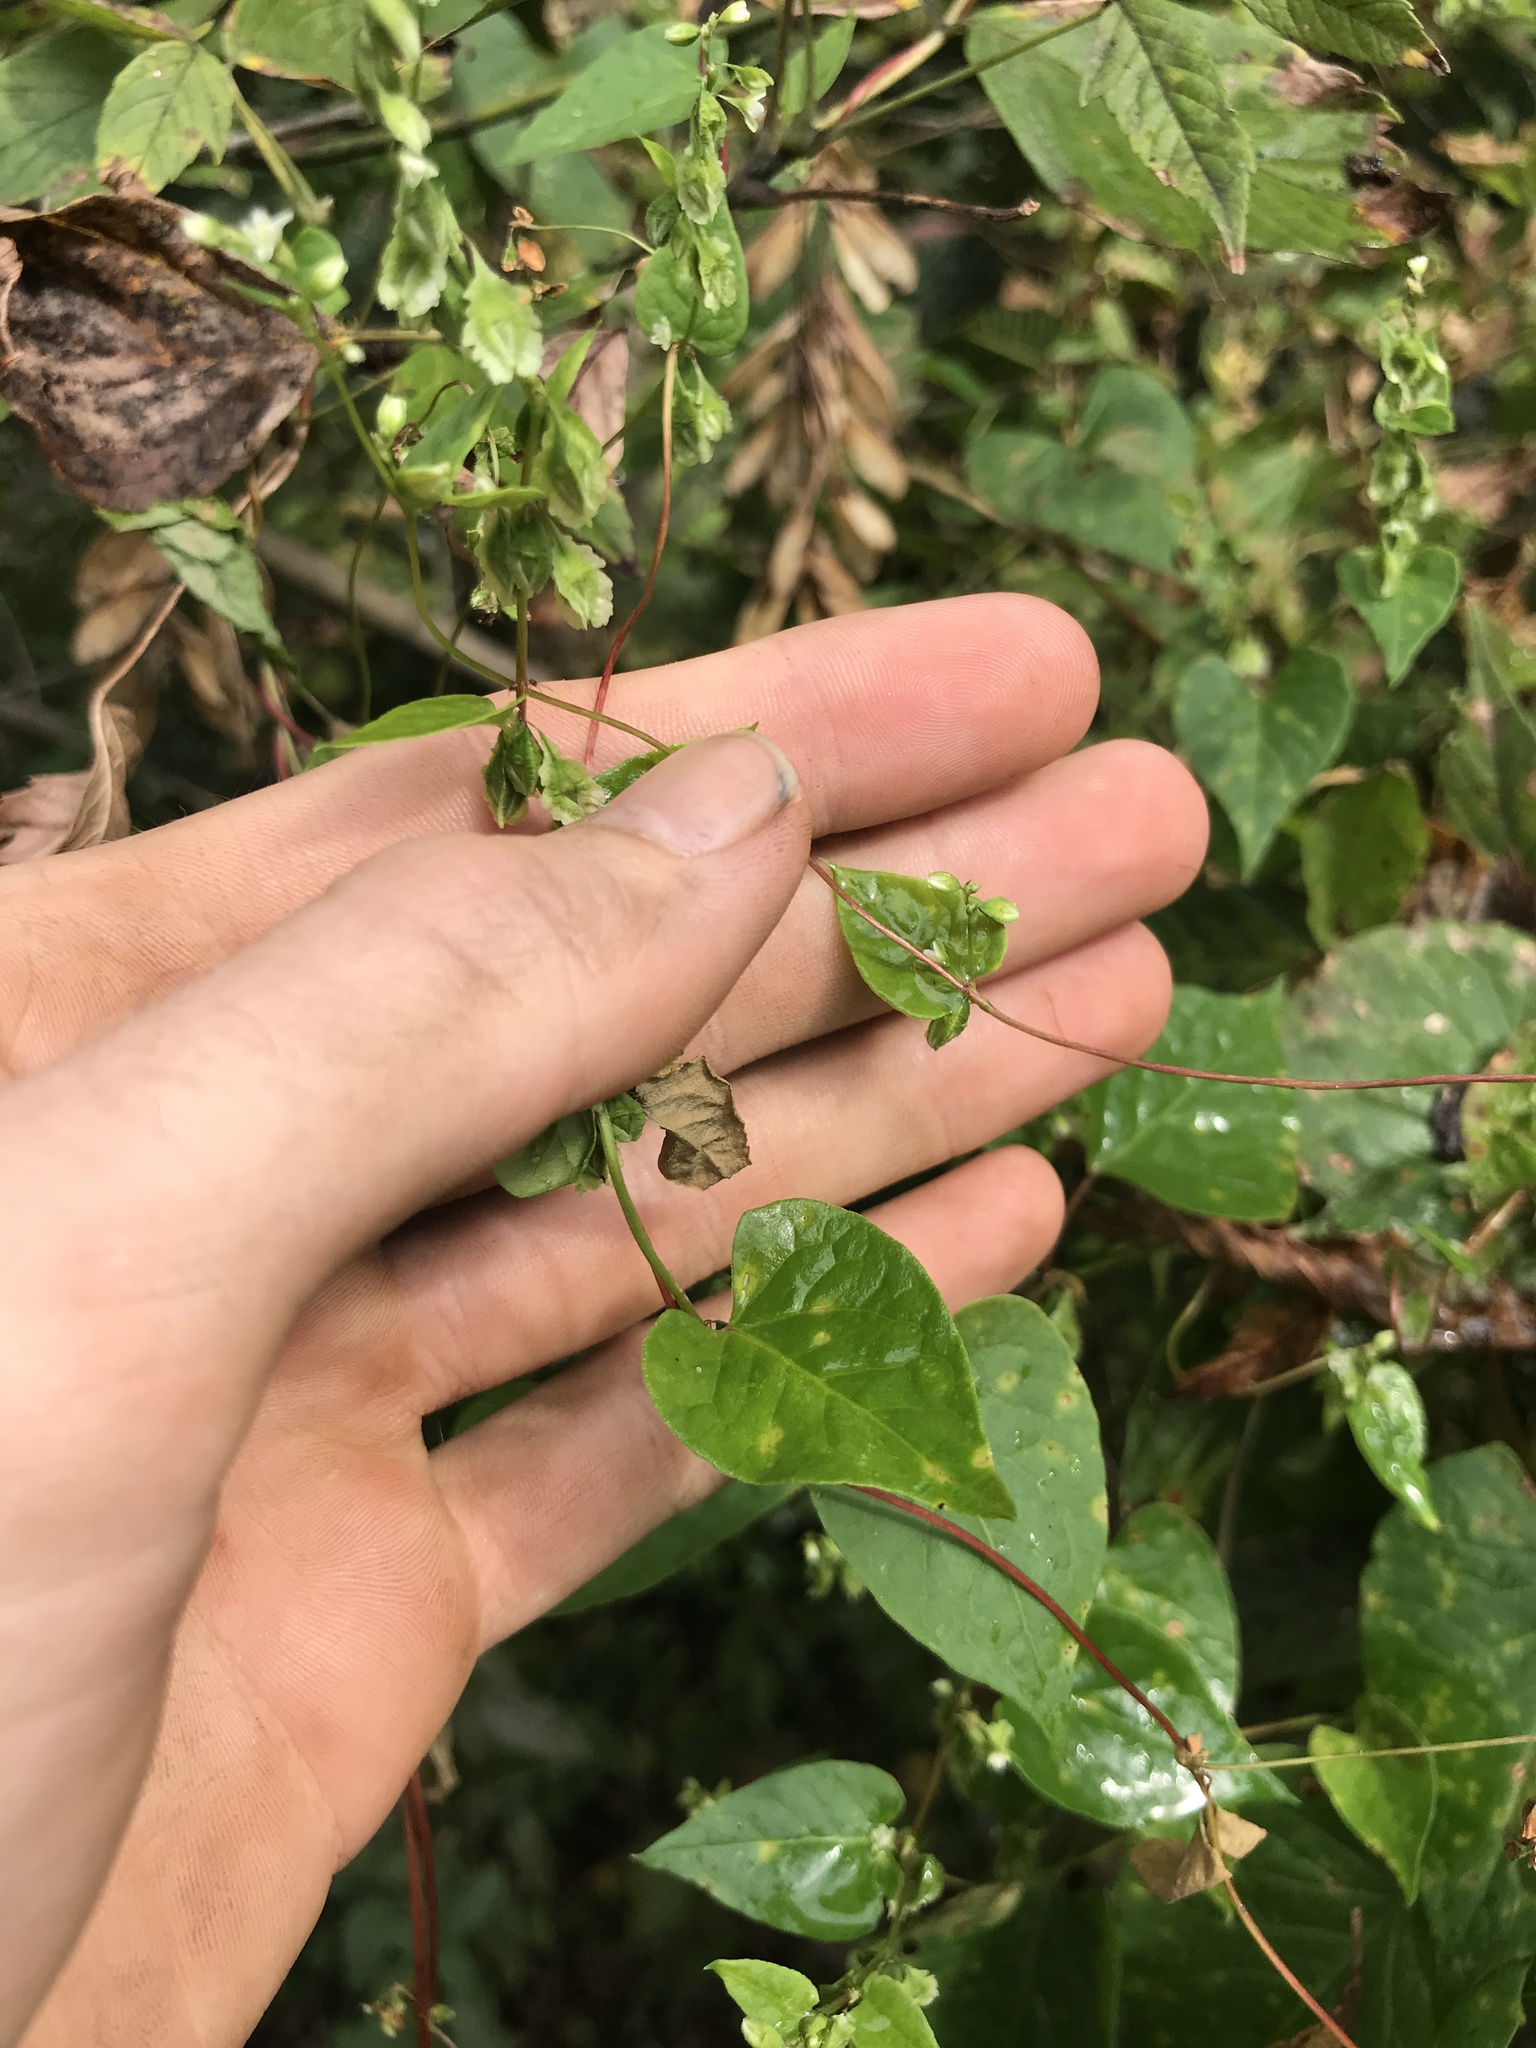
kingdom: Plantae
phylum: Tracheophyta
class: Magnoliopsida
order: Caryophyllales
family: Polygonaceae
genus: Fallopia
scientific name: Fallopia scandens
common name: Climbing false buckwheat
